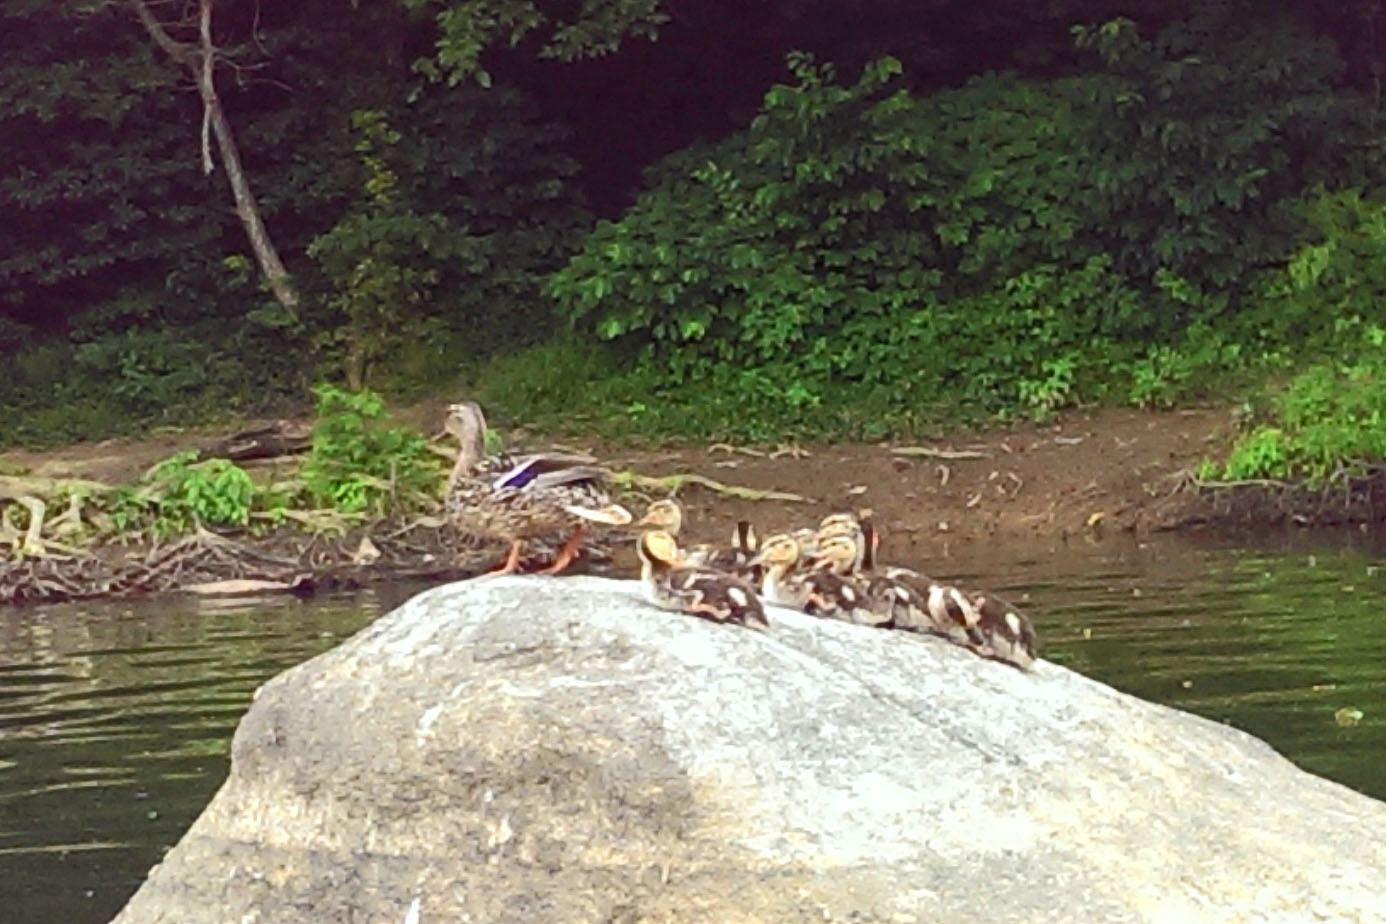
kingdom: Animalia
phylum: Chordata
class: Aves
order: Anseriformes
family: Anatidae
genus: Anas
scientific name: Anas platyrhynchos
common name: Mallard
